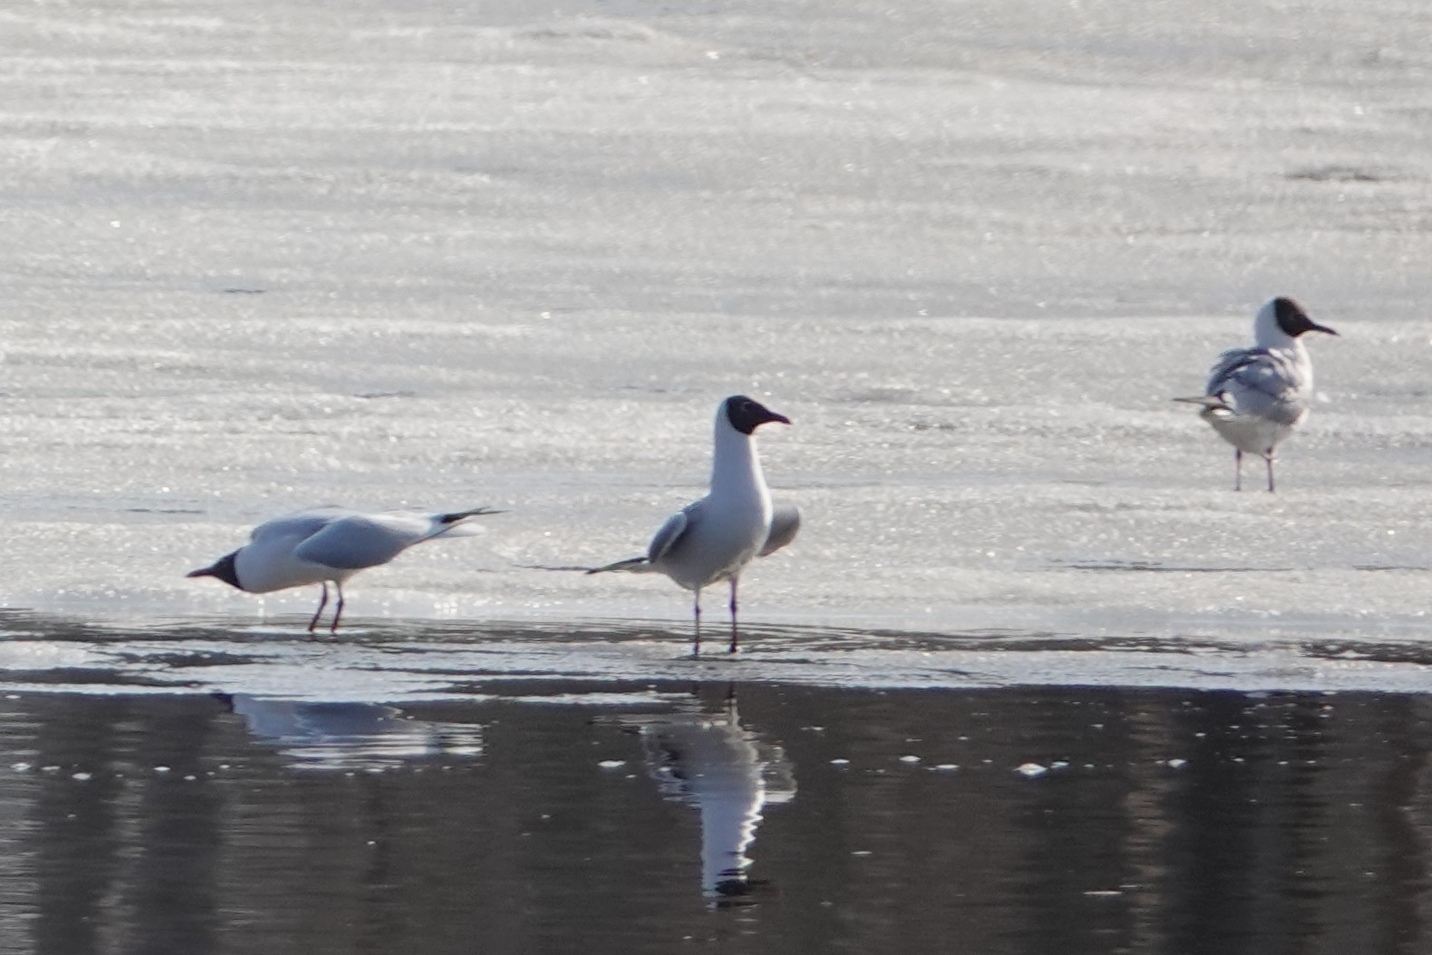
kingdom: Animalia
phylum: Chordata
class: Aves
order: Charadriiformes
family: Laridae
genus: Chroicocephalus
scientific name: Chroicocephalus ridibundus
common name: Black-headed gull
